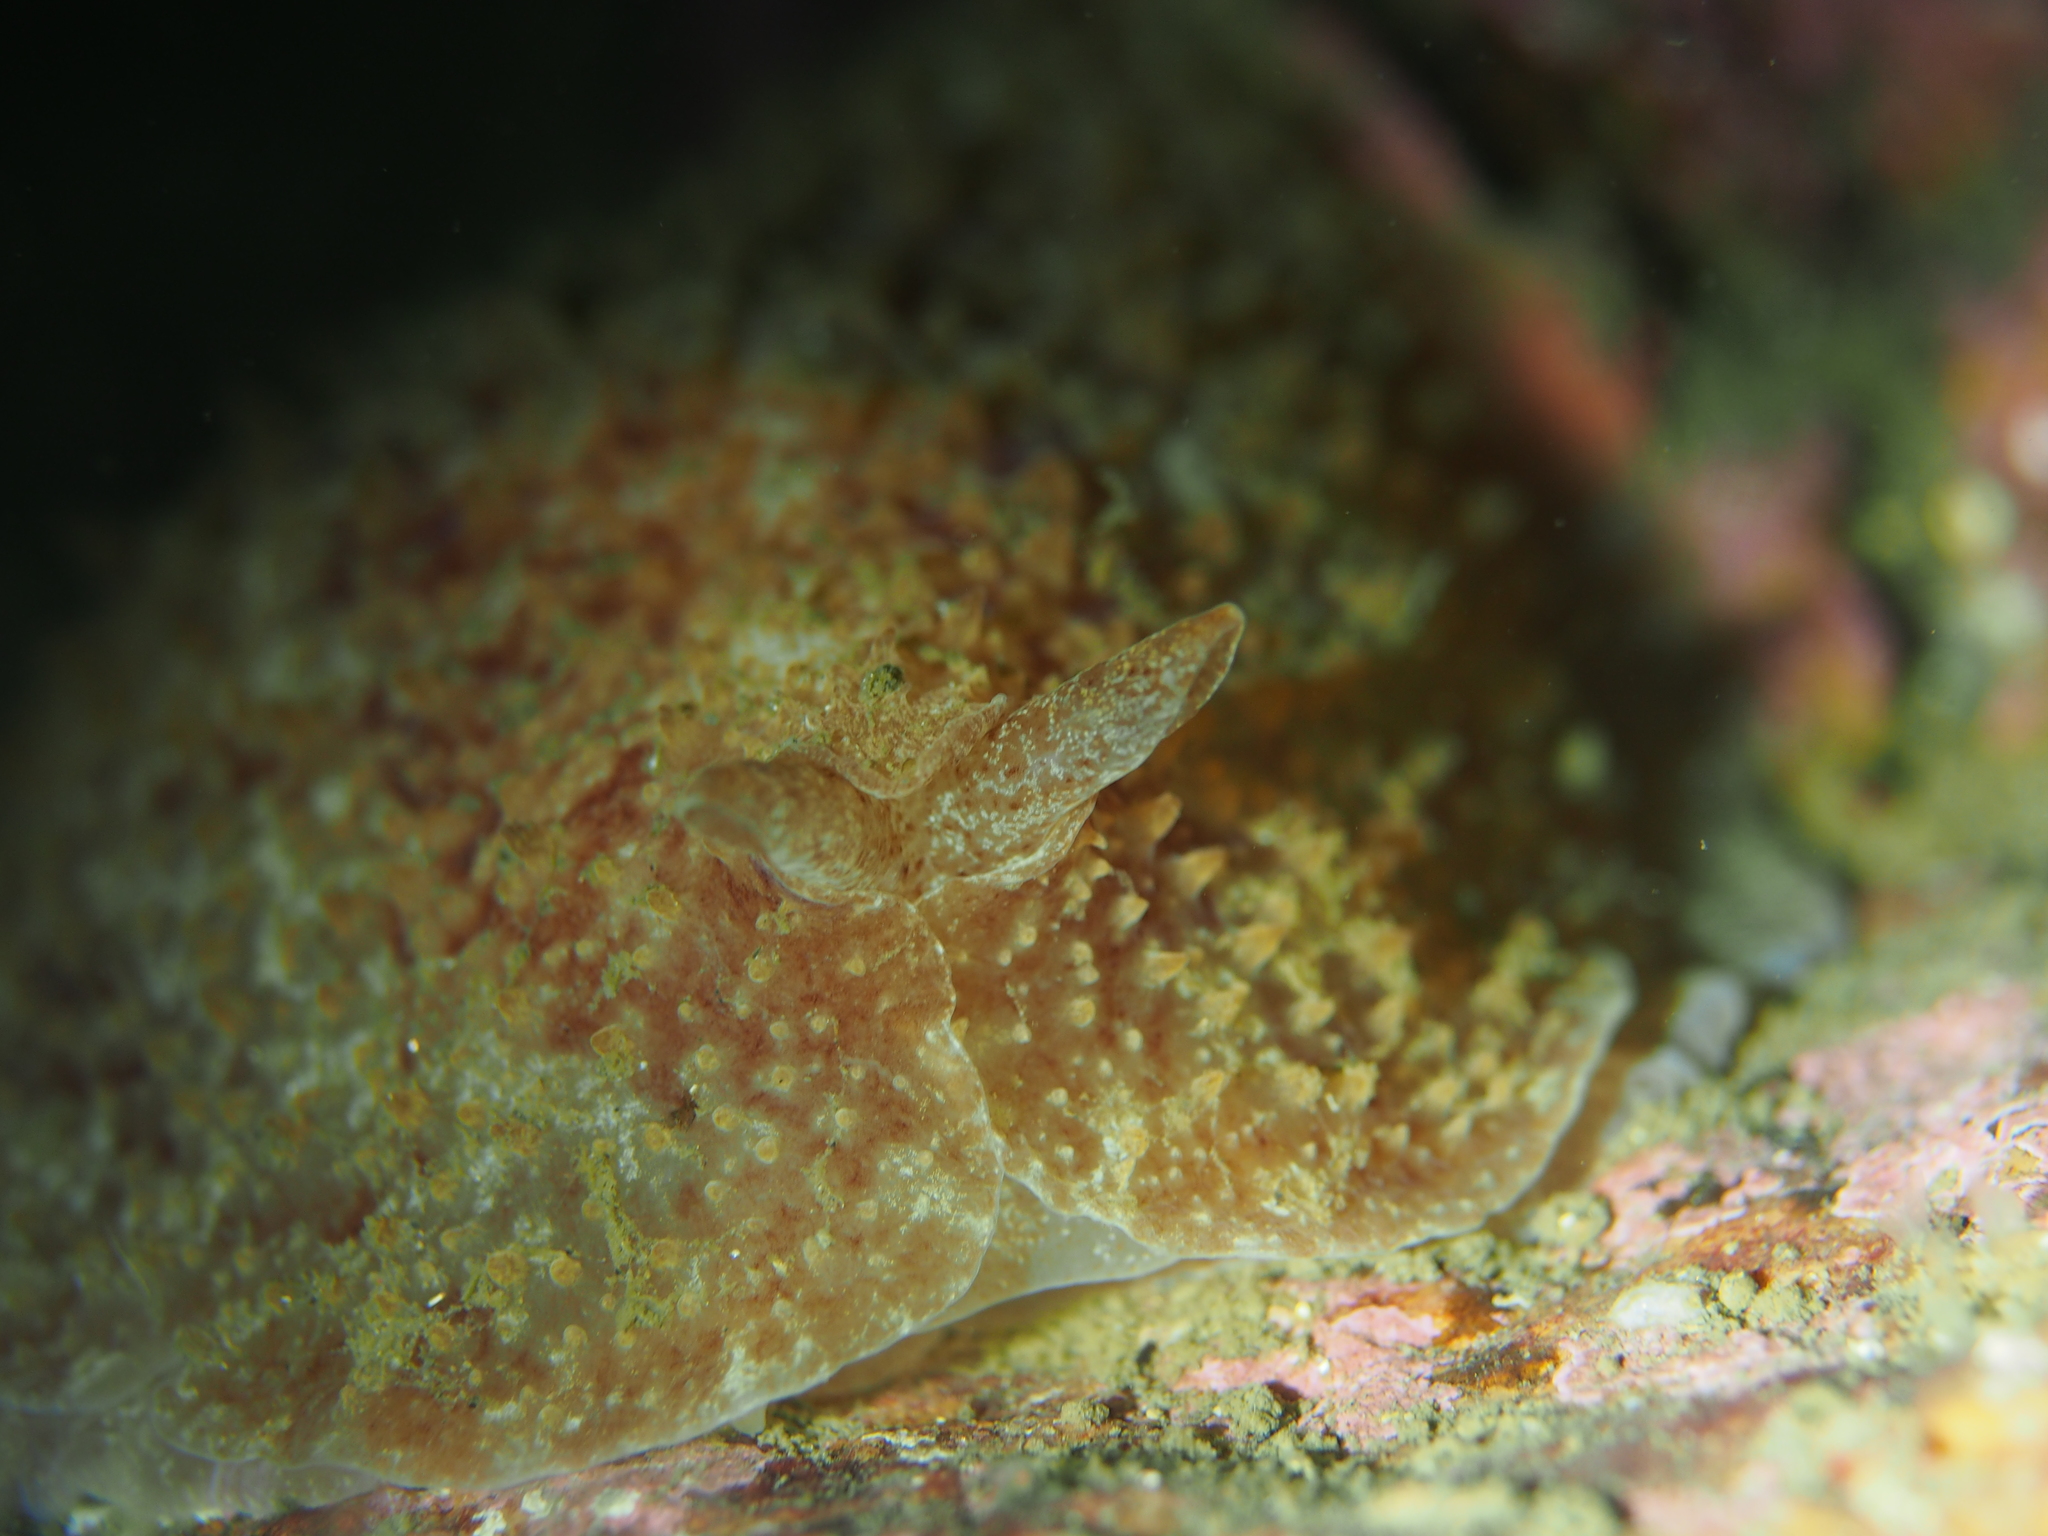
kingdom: Animalia
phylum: Mollusca
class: Gastropoda
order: Pleurobranchida
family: Pleurobranchidae
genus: Pleurobranchus
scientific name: Pleurobranchus membranaceus
